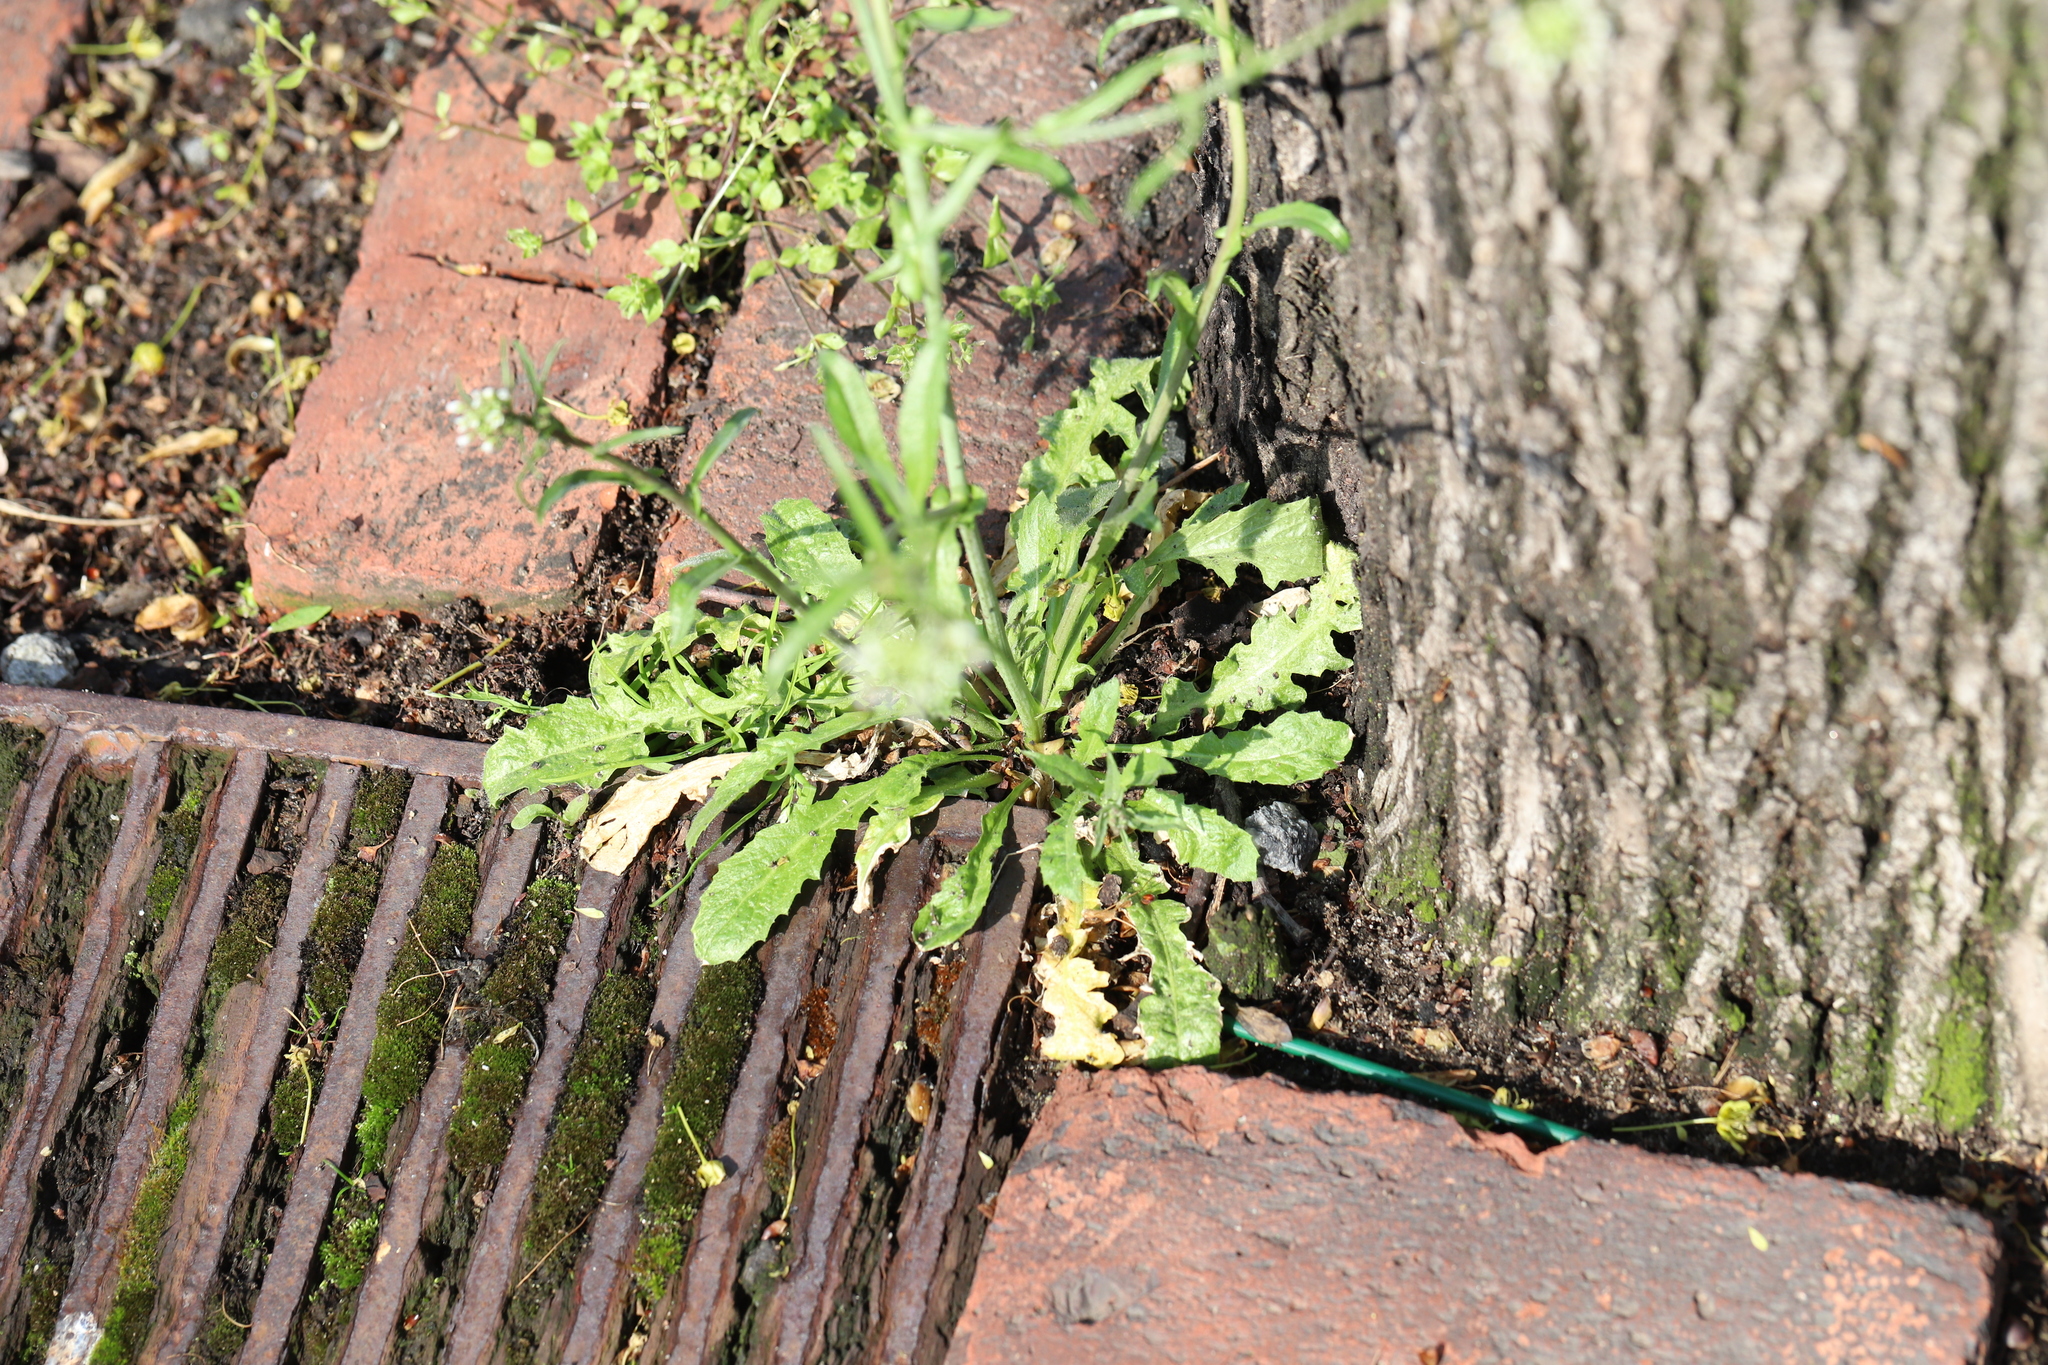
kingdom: Plantae
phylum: Tracheophyta
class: Magnoliopsida
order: Brassicales
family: Brassicaceae
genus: Capsella
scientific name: Capsella bursa-pastoris
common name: Shepherd's purse
